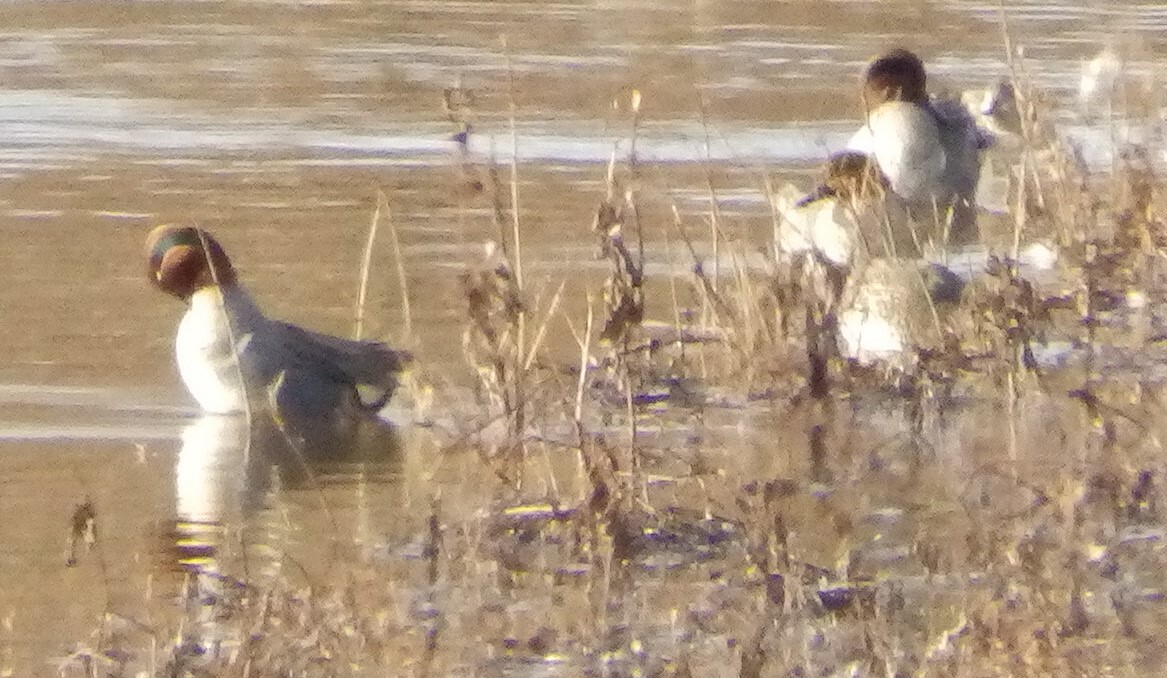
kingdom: Animalia
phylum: Chordata
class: Aves
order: Anseriformes
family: Anatidae
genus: Anas
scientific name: Anas crecca
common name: Eurasian teal
